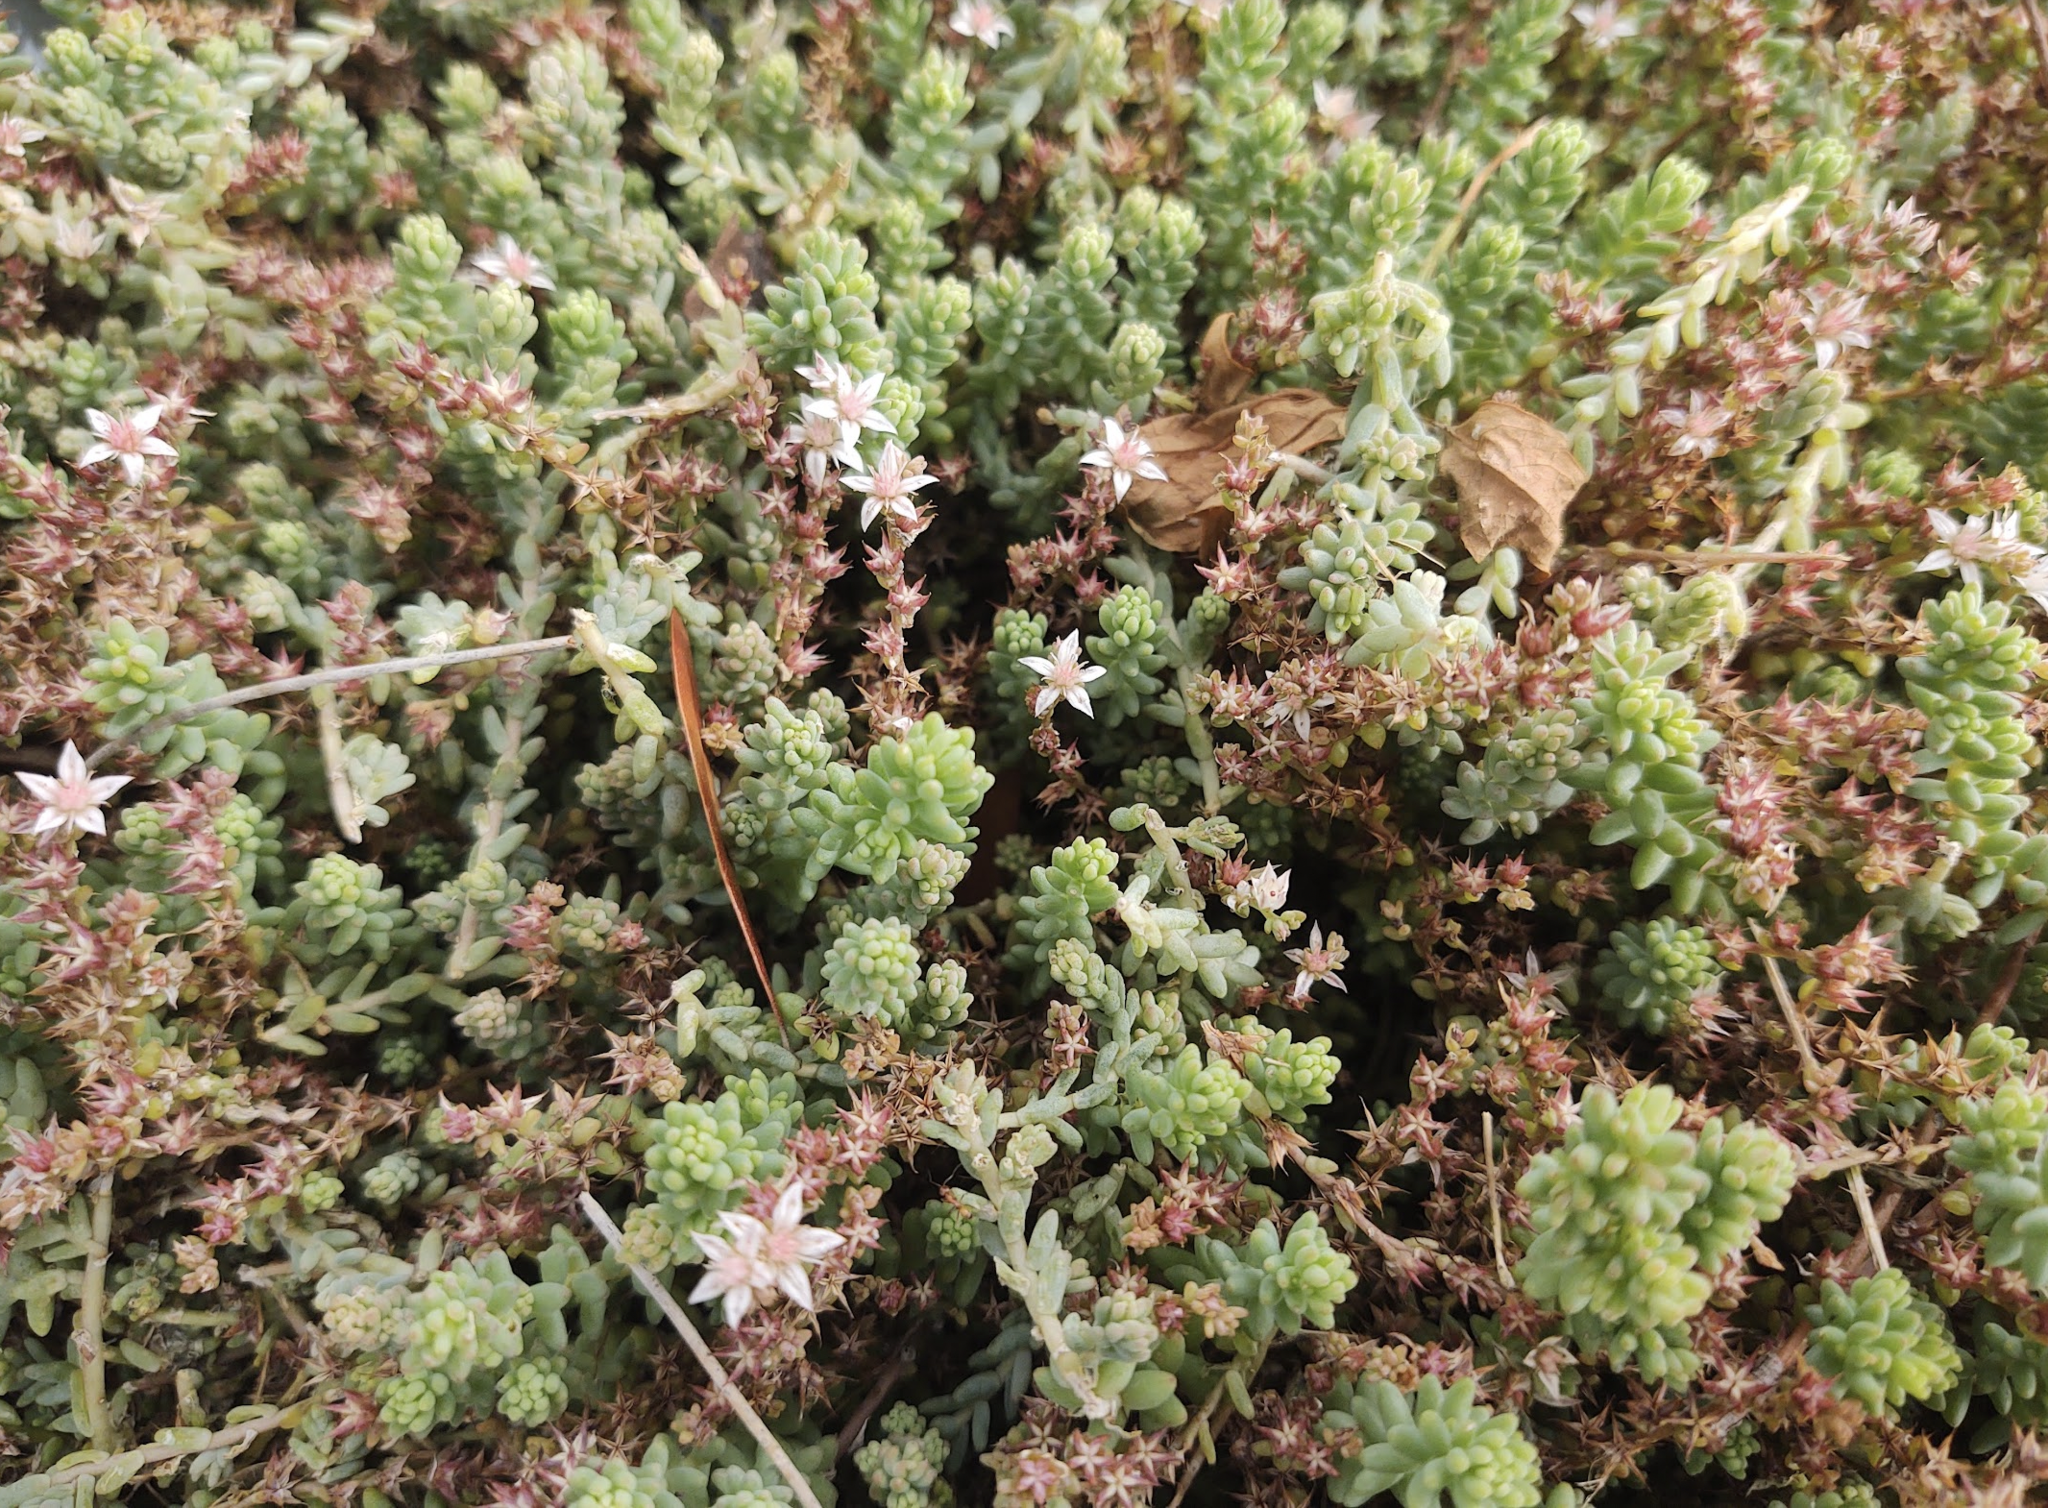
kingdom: Plantae
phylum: Tracheophyta
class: Magnoliopsida
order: Saxifragales
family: Crassulaceae
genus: Sedum
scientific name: Sedum potosinum
